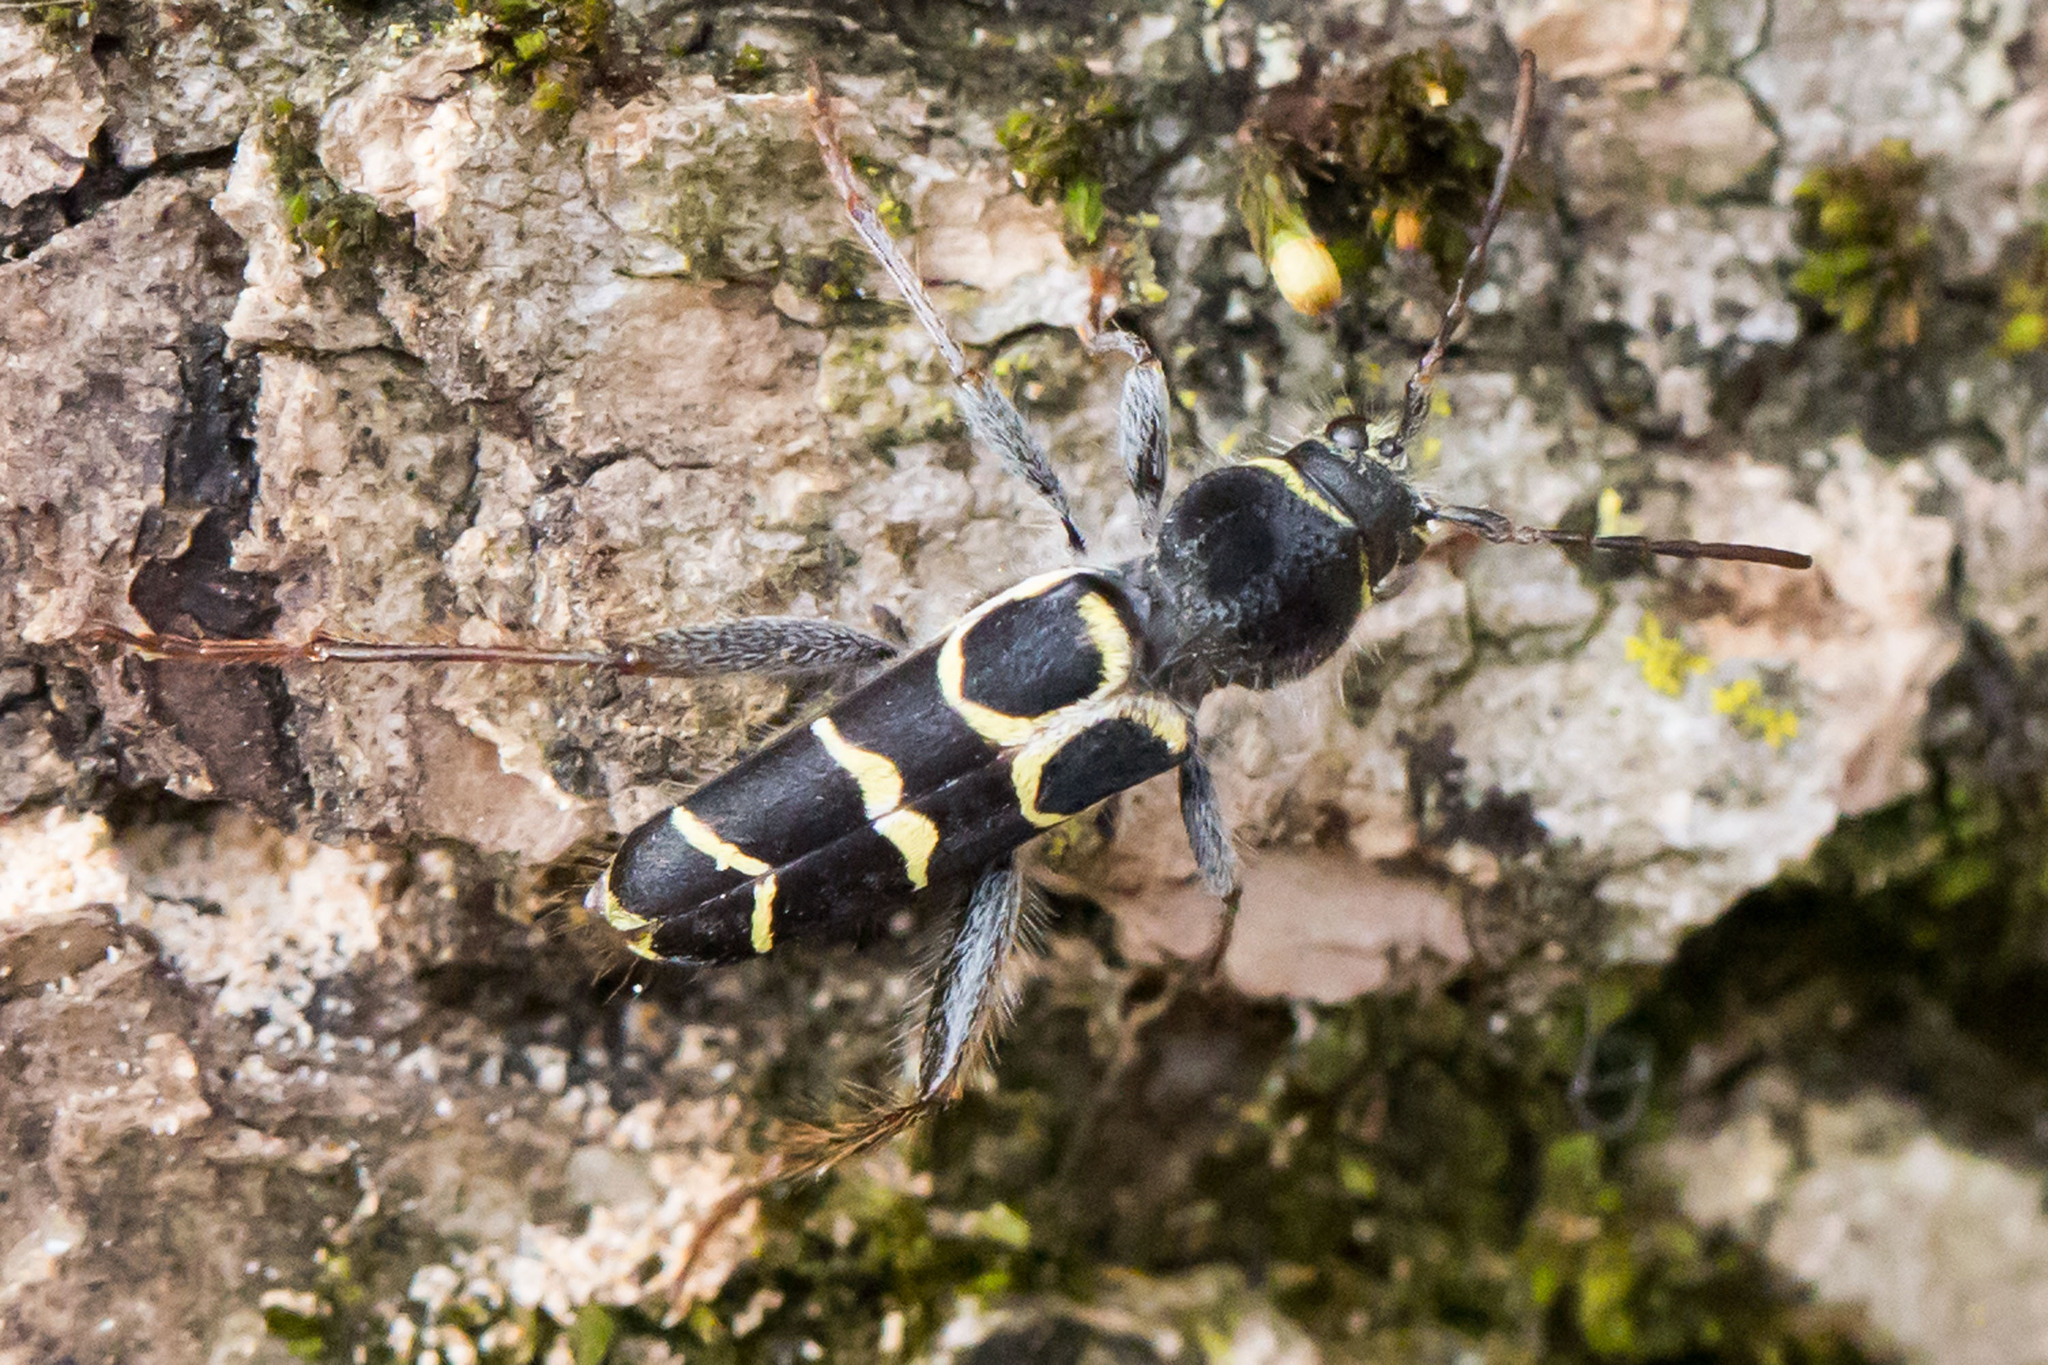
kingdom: Animalia
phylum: Arthropoda
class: Insecta
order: Coleoptera
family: Cerambycidae
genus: Neoclytus
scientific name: Neoclytus caprea
